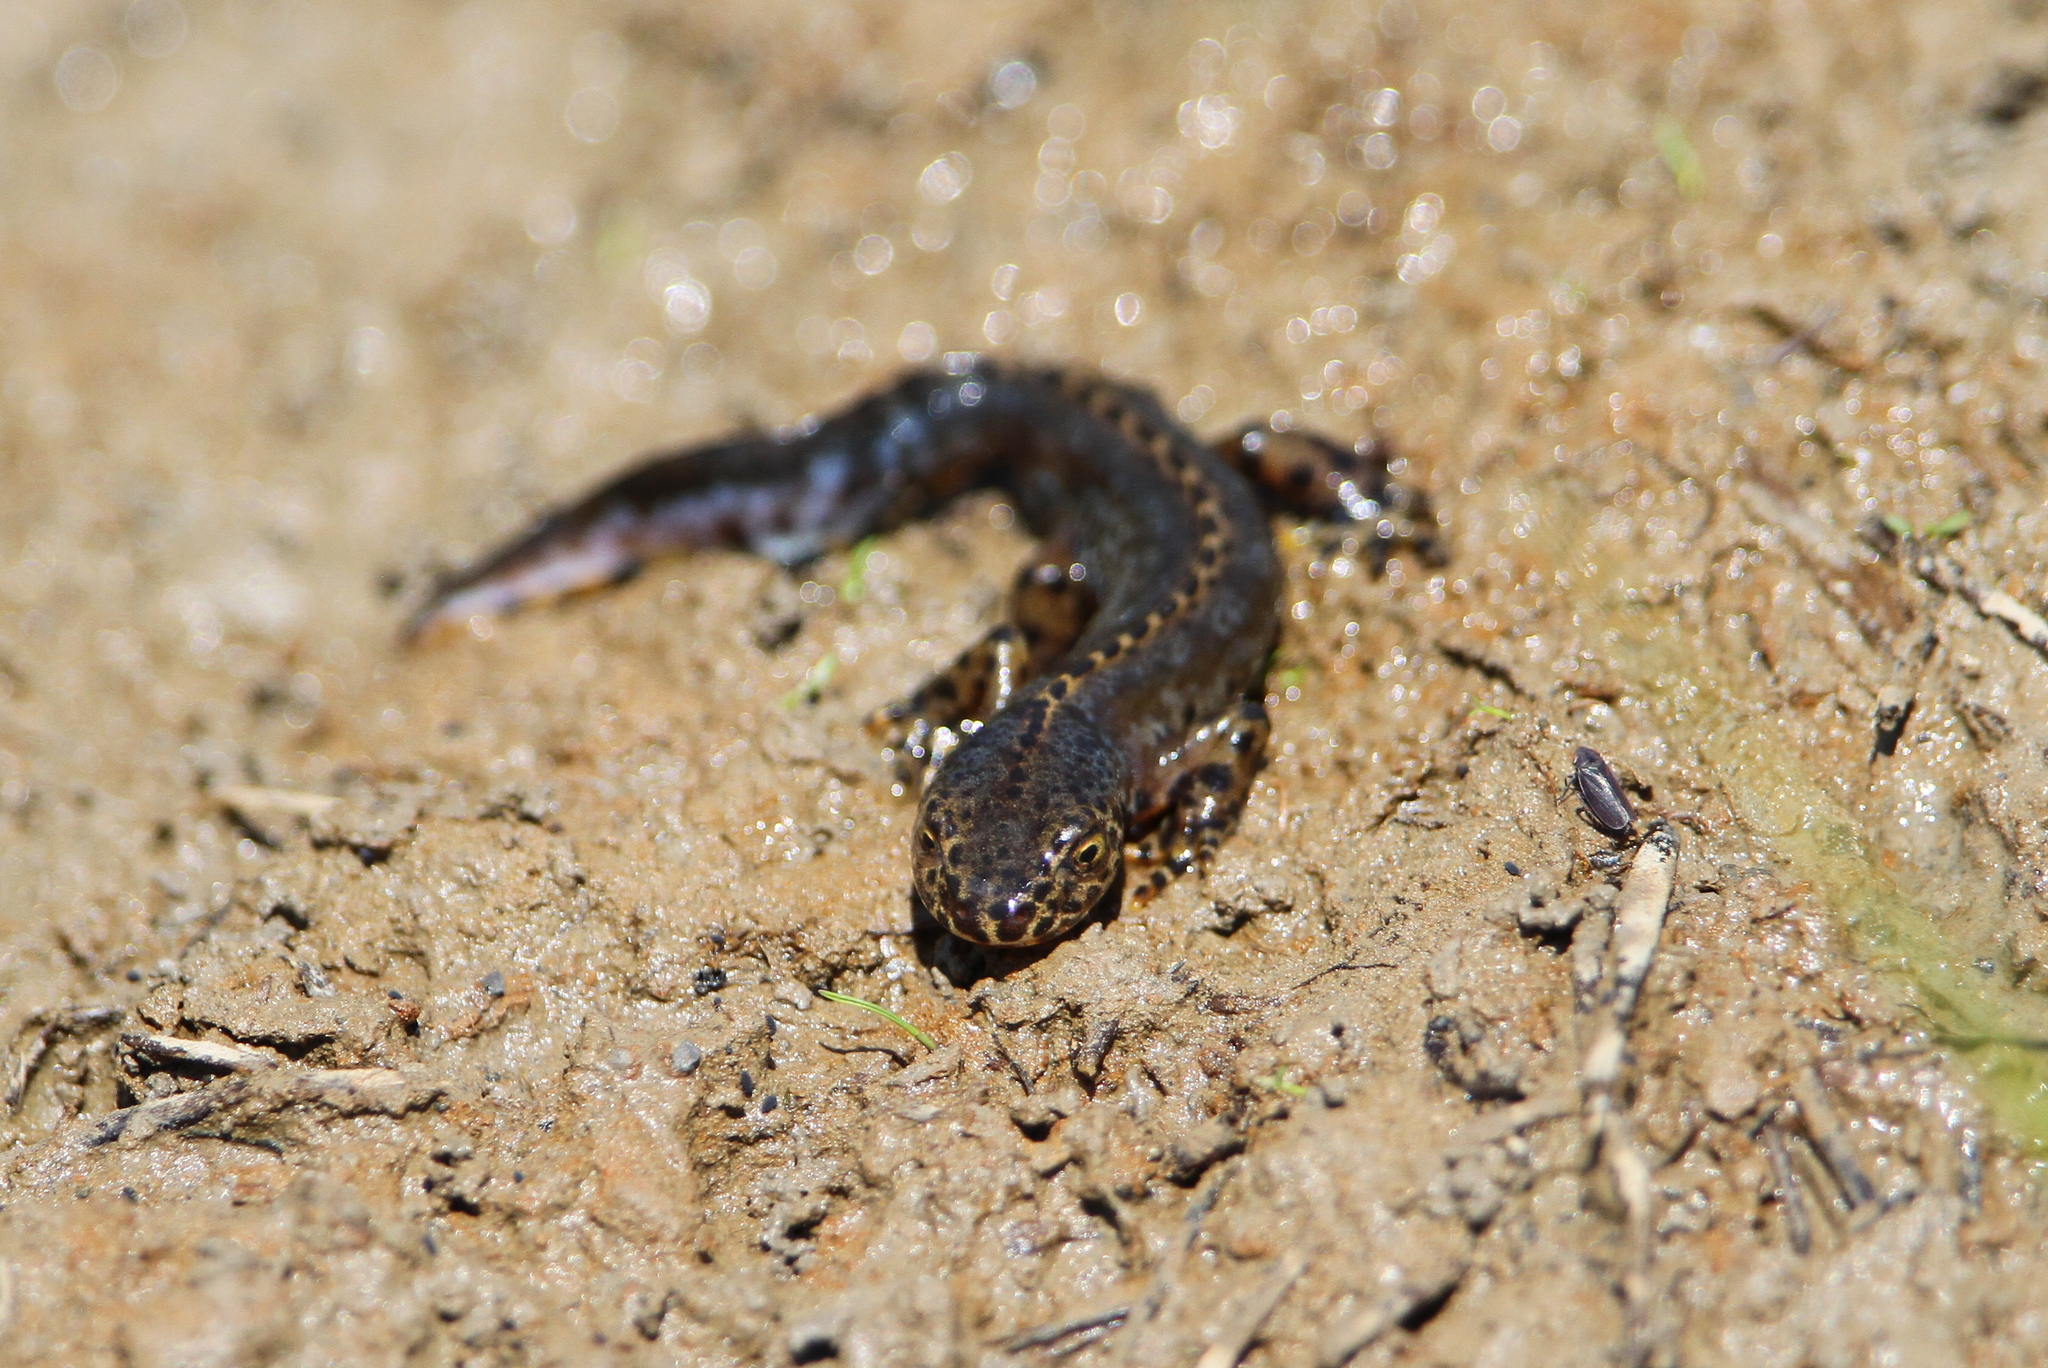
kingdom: Animalia
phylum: Chordata
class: Amphibia
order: Caudata
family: Salamandridae
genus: Ichthyosaura
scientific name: Ichthyosaura alpestris
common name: Alpine newt
